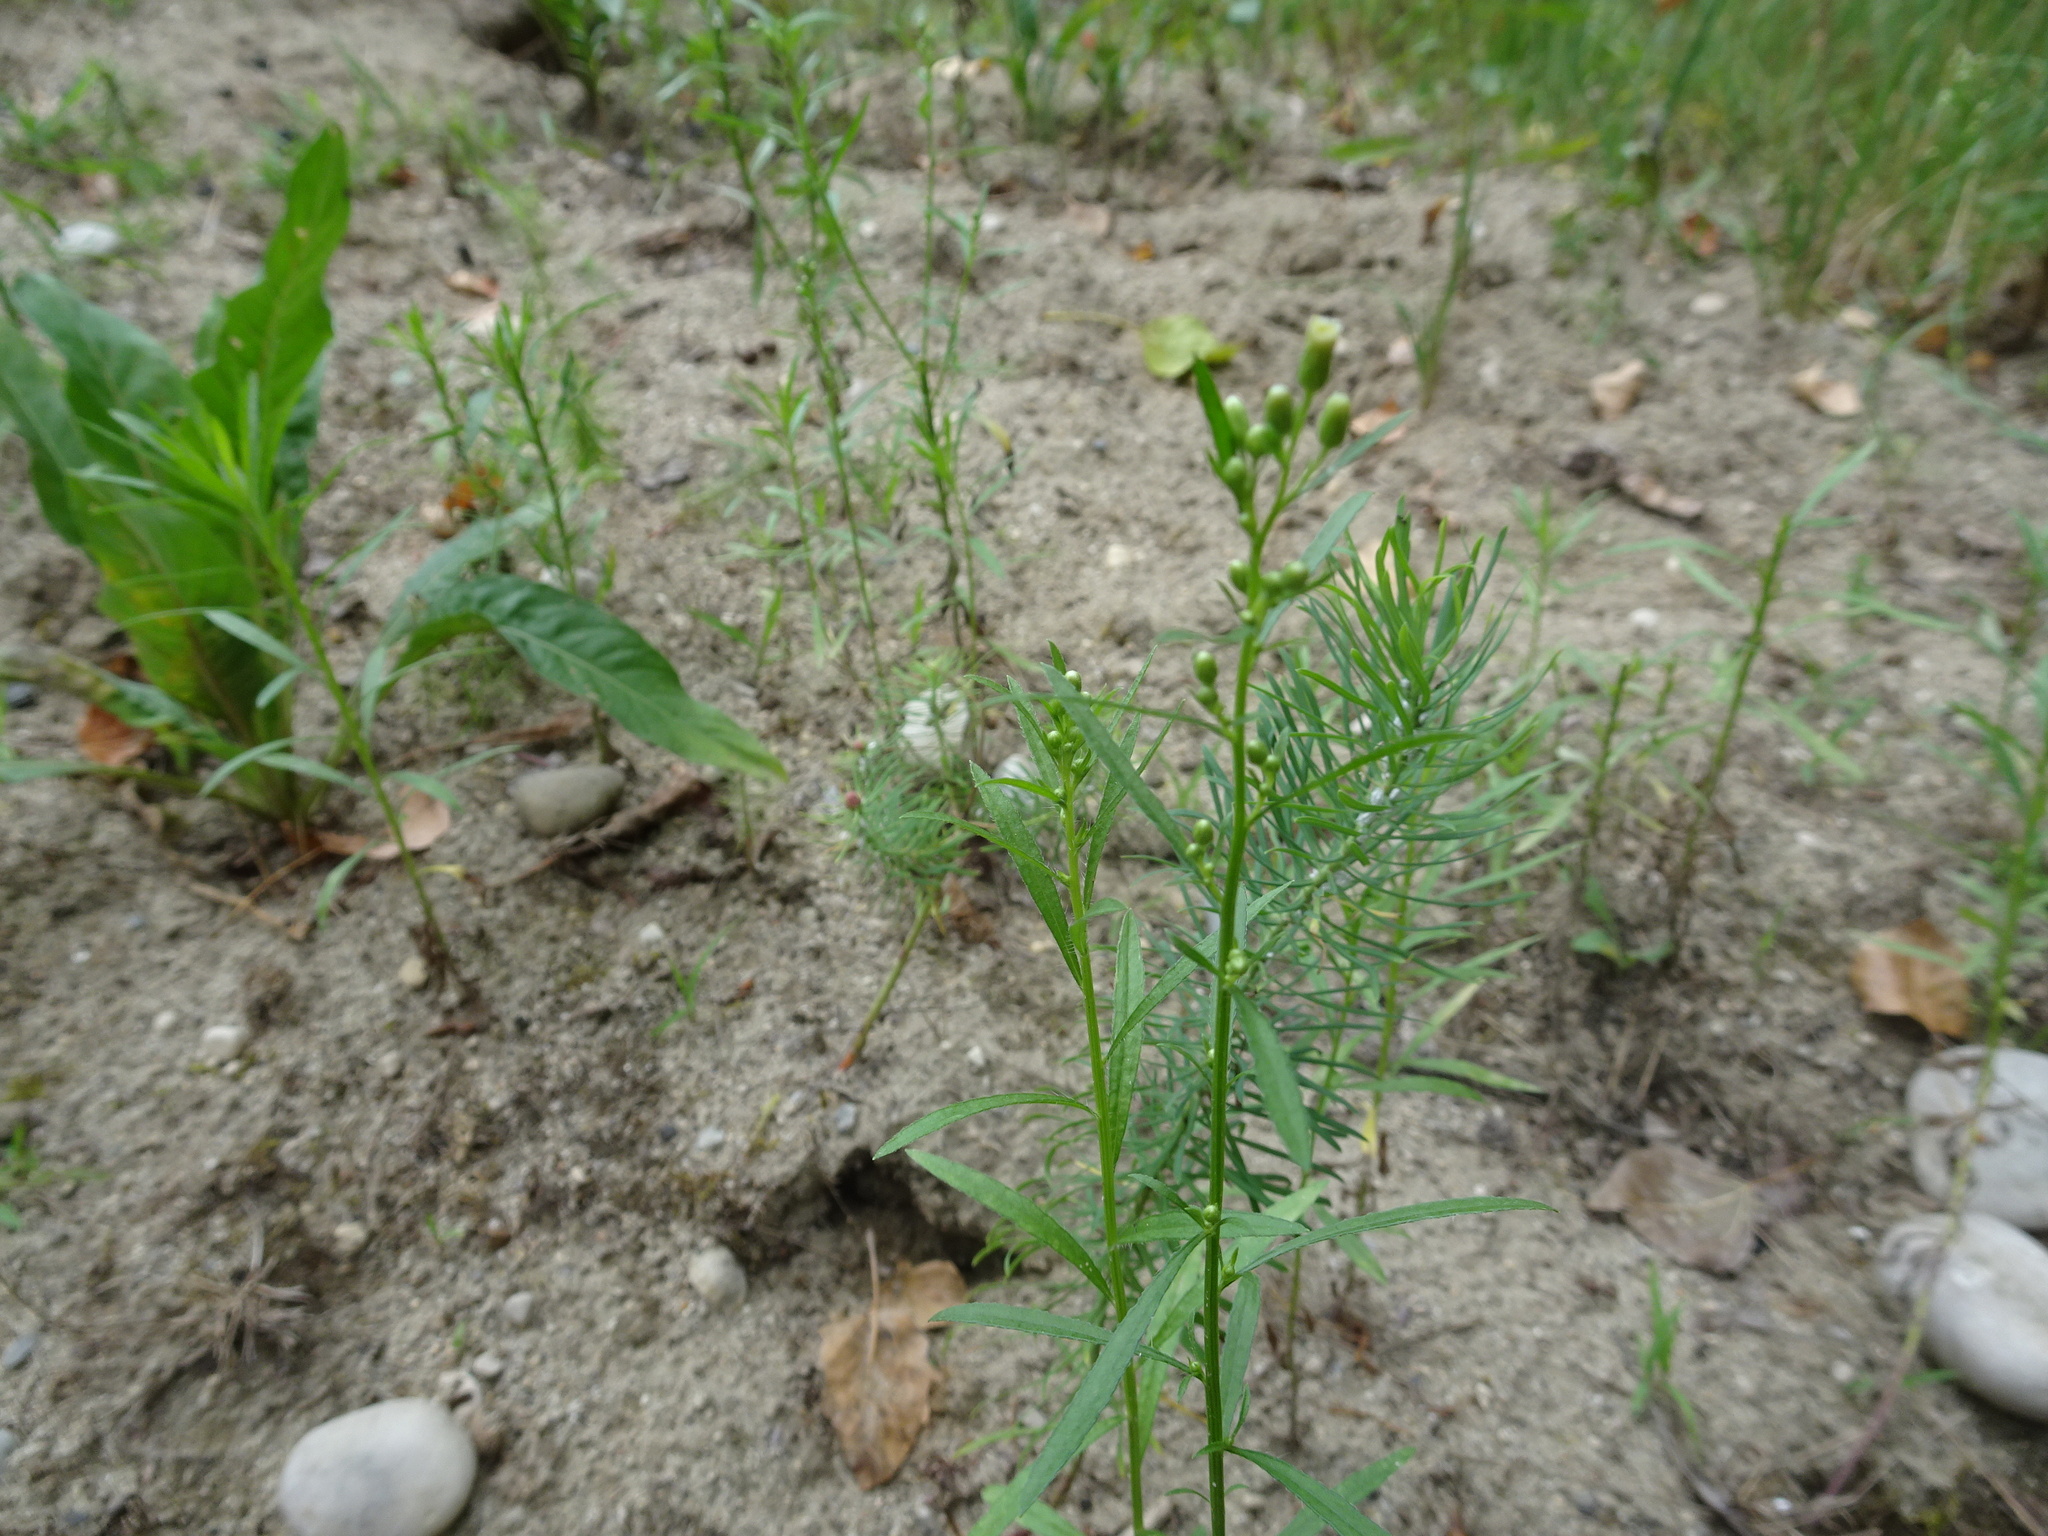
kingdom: Plantae
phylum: Tracheophyta
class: Magnoliopsida
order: Asterales
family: Asteraceae
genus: Erigeron
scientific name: Erigeron canadensis
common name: Canadian fleabane
